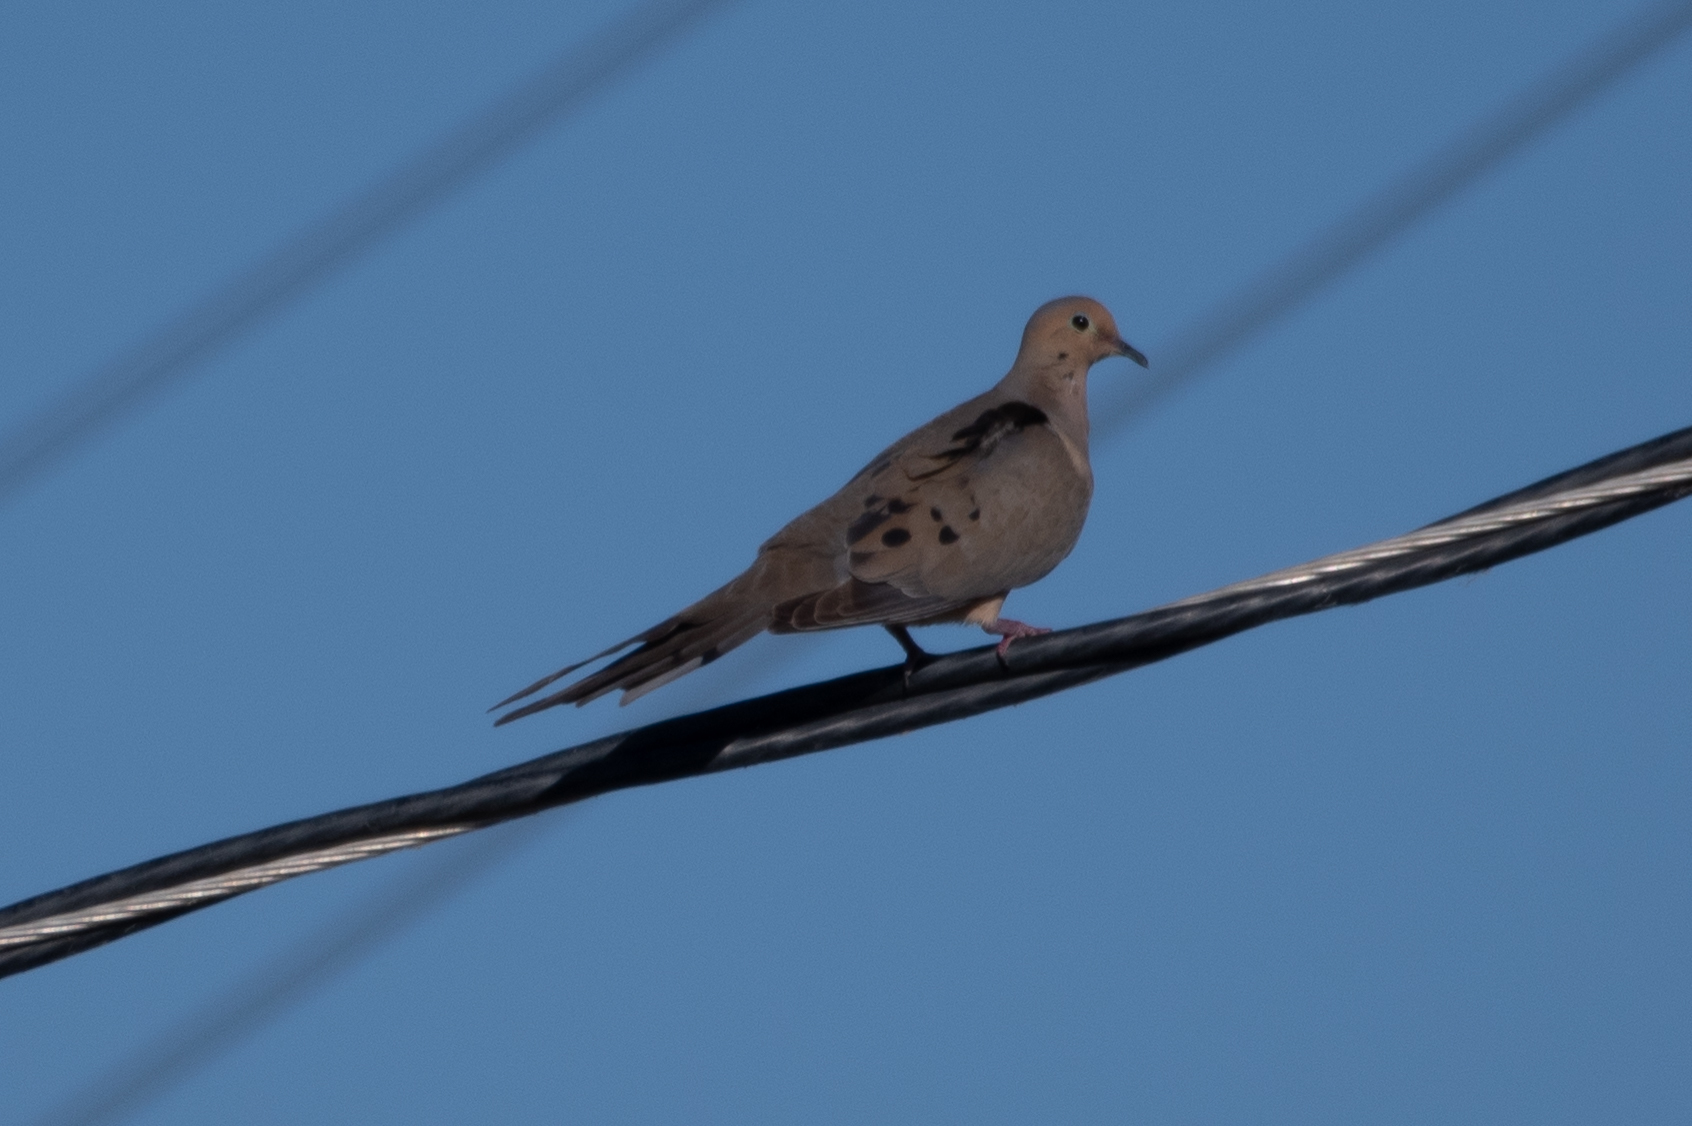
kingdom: Animalia
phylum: Chordata
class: Aves
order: Columbiformes
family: Columbidae
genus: Zenaida
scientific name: Zenaida macroura
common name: Mourning dove
